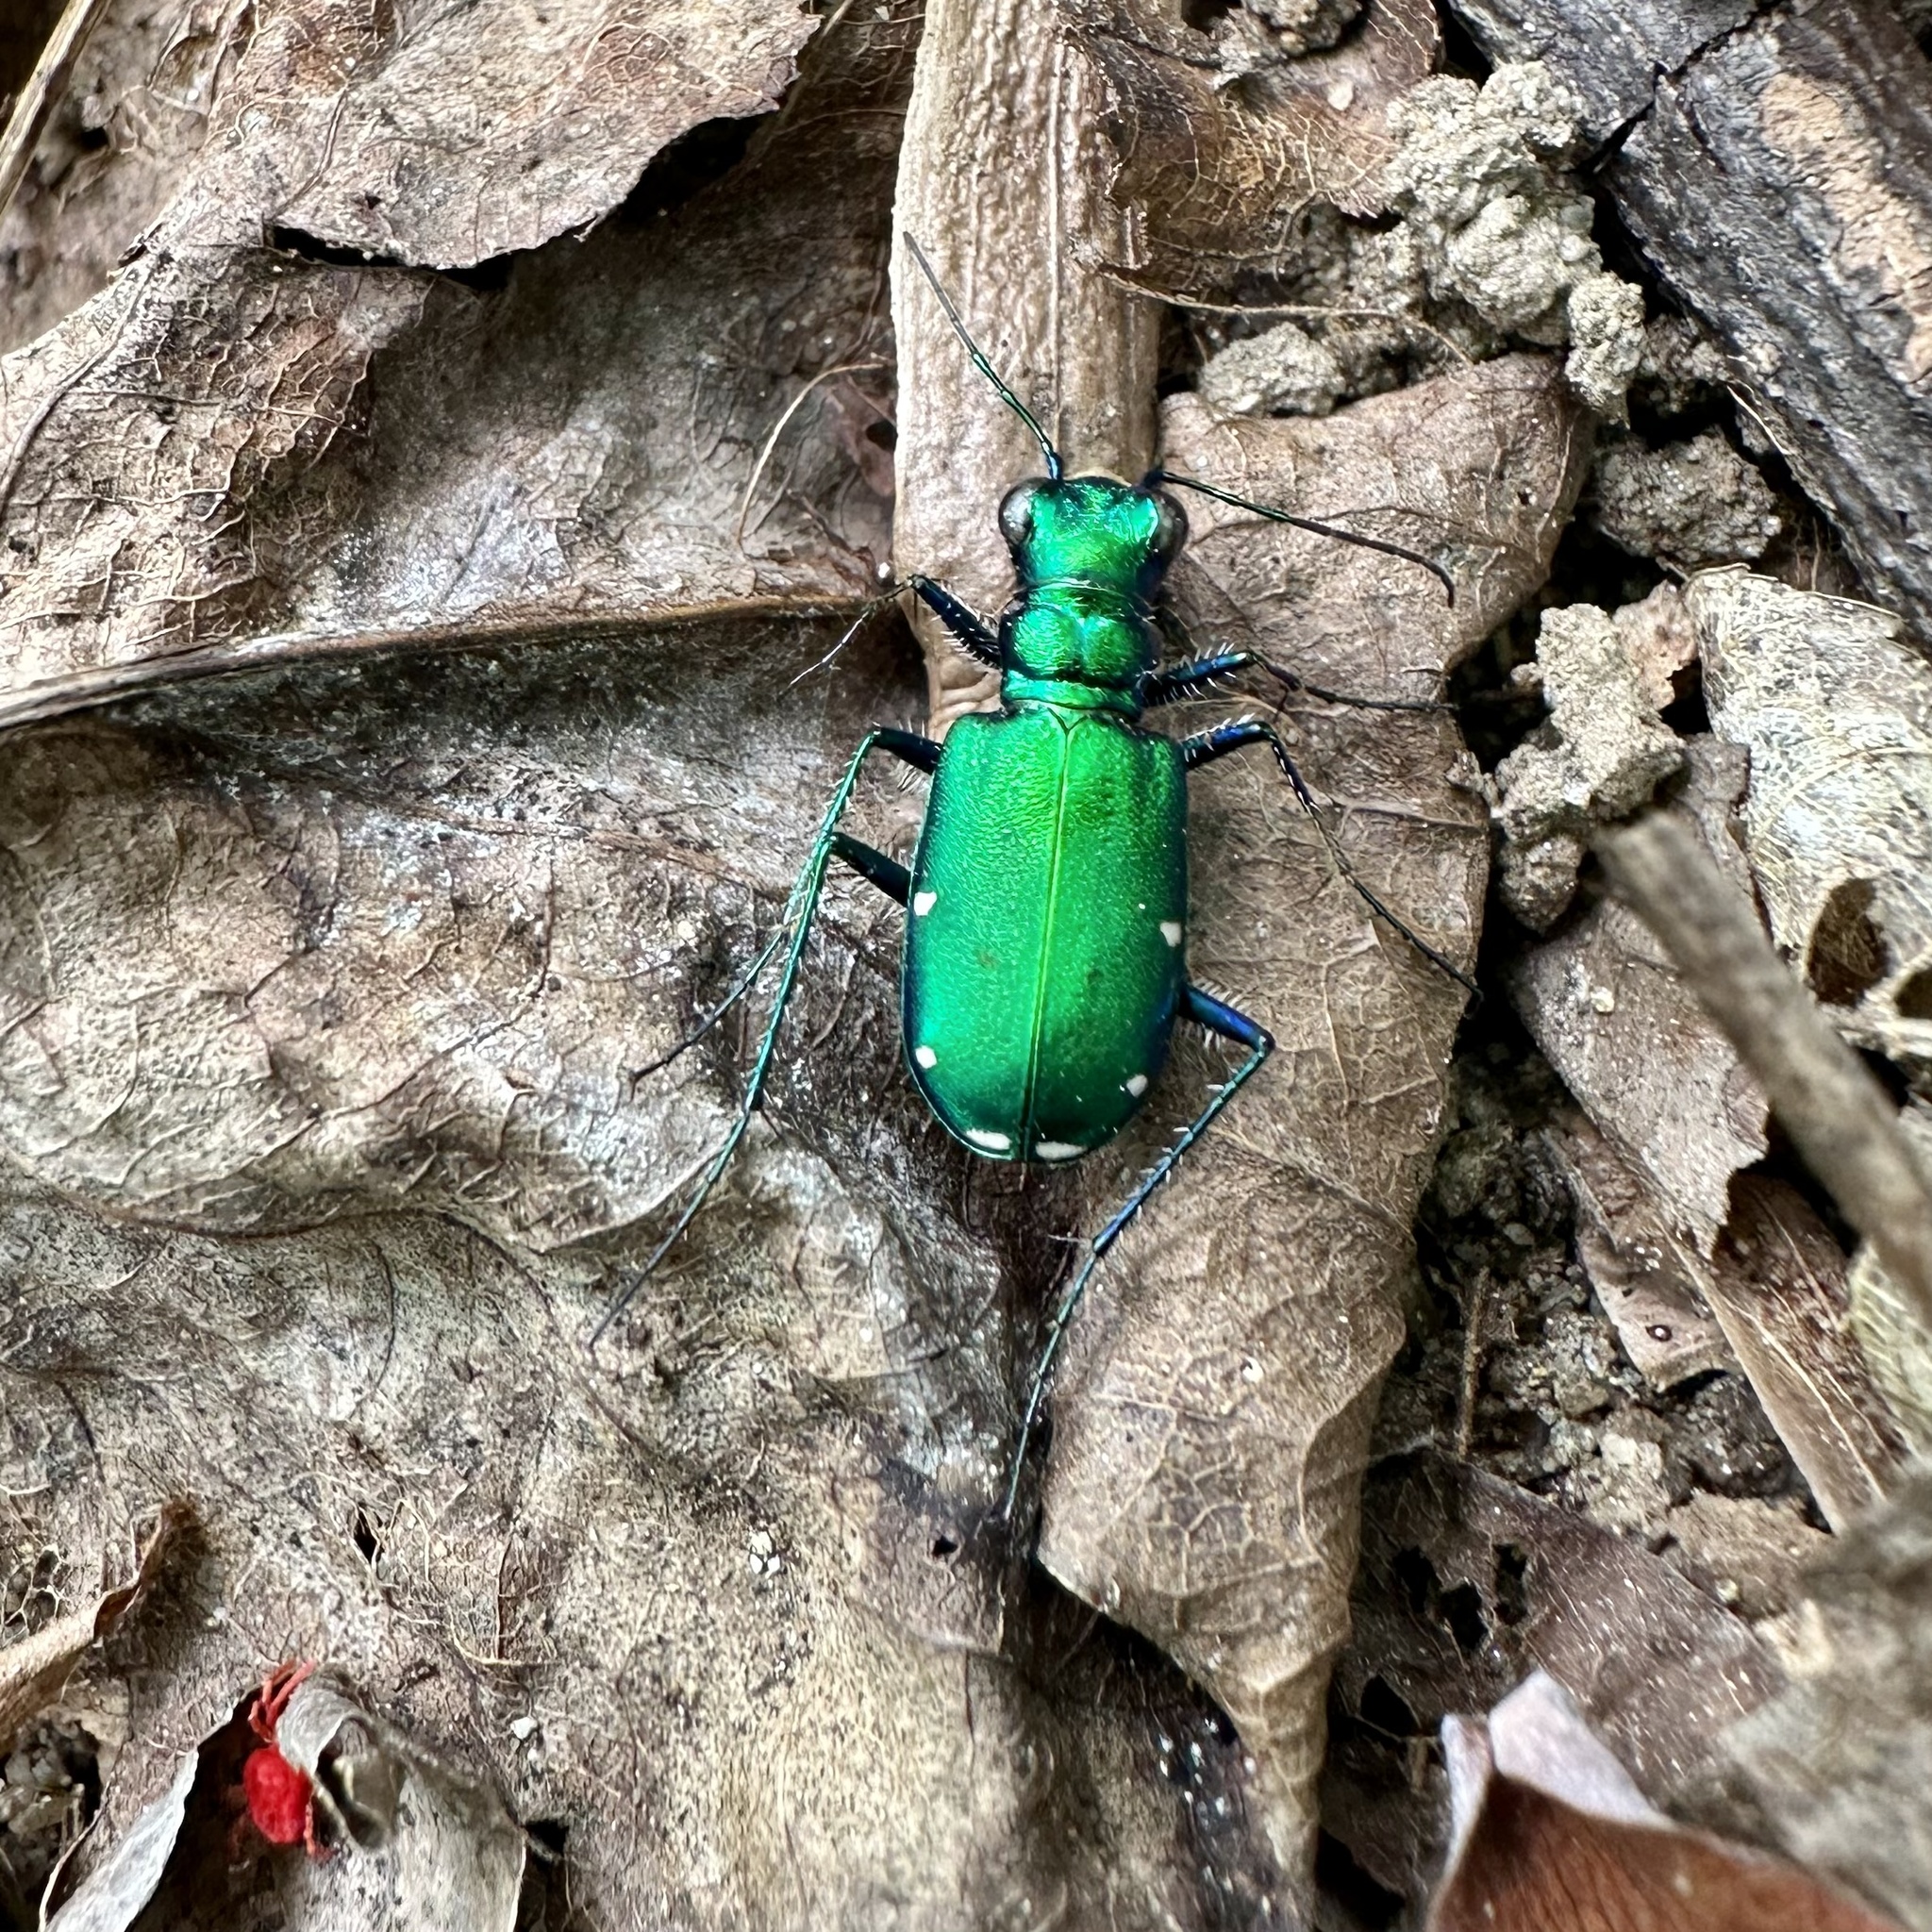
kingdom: Animalia
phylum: Arthropoda
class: Insecta
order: Coleoptera
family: Carabidae
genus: Cicindela
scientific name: Cicindela sexguttata
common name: Six-spotted tiger beetle
